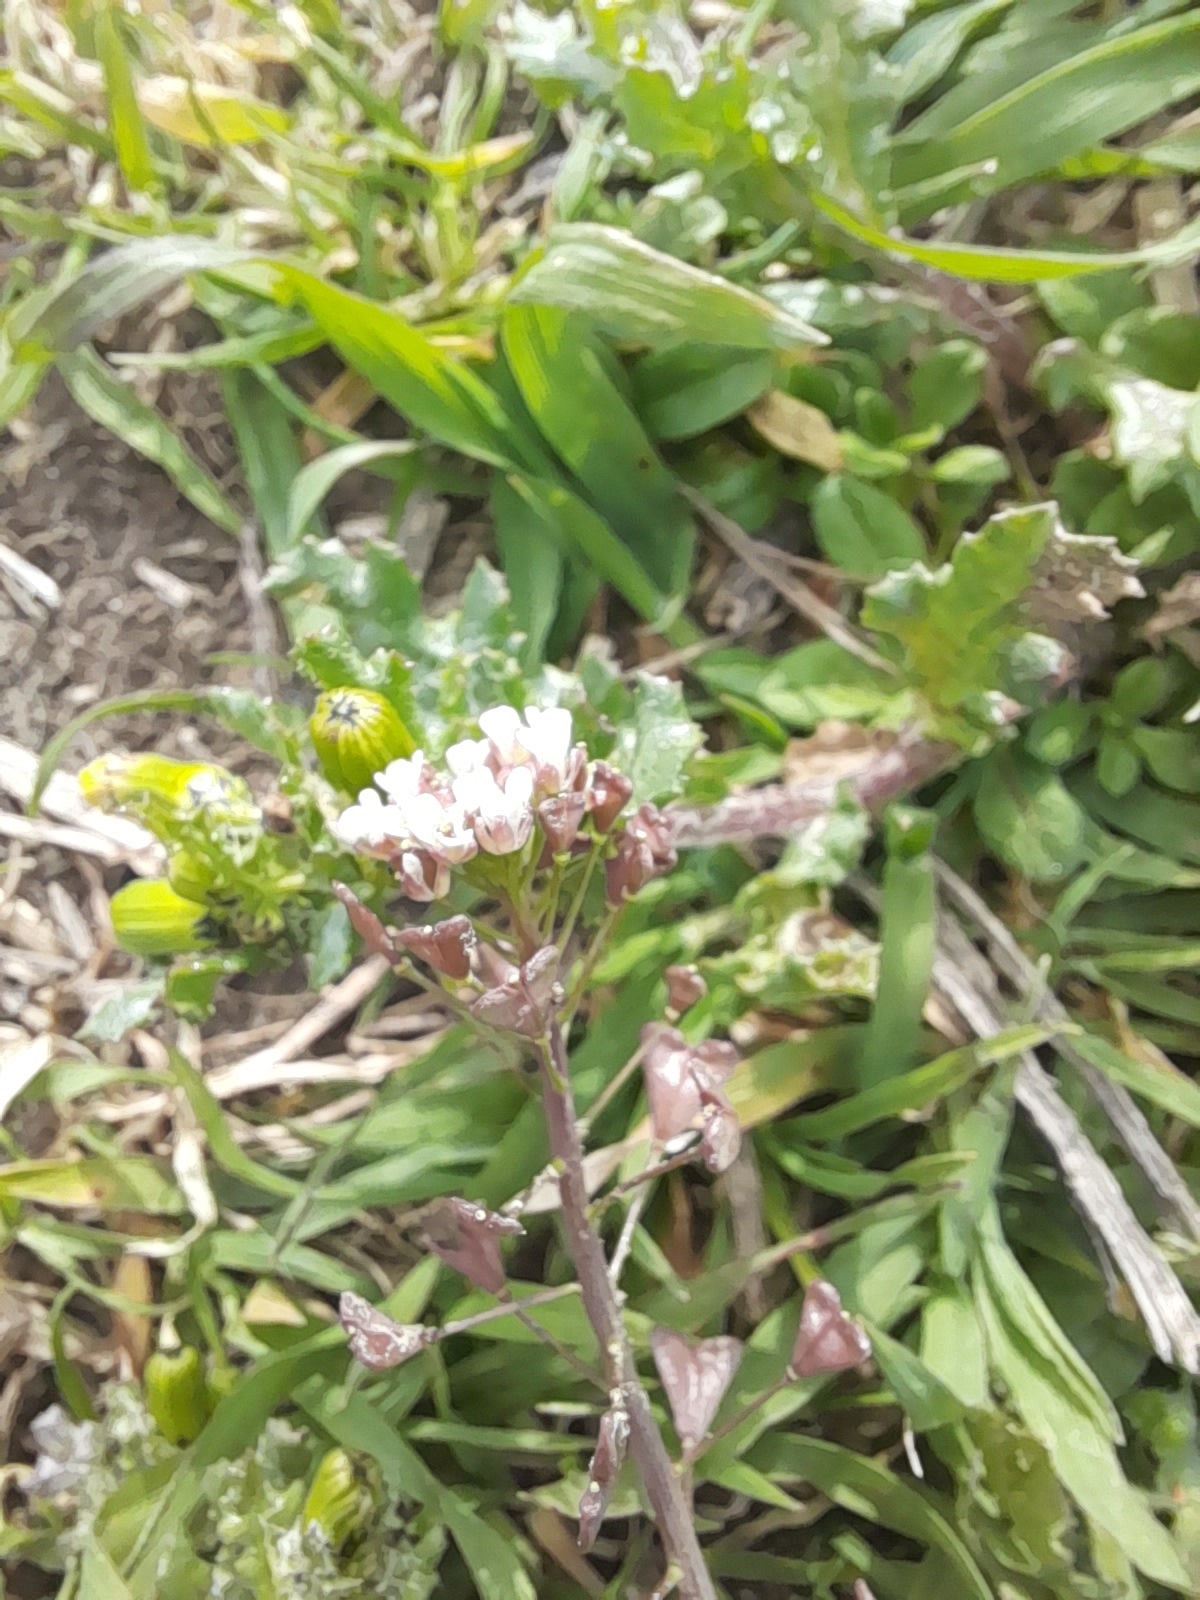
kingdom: Plantae
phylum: Tracheophyta
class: Magnoliopsida
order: Brassicales
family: Brassicaceae
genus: Capsella
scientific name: Capsella bursa-pastoris
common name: Shepherd's purse
